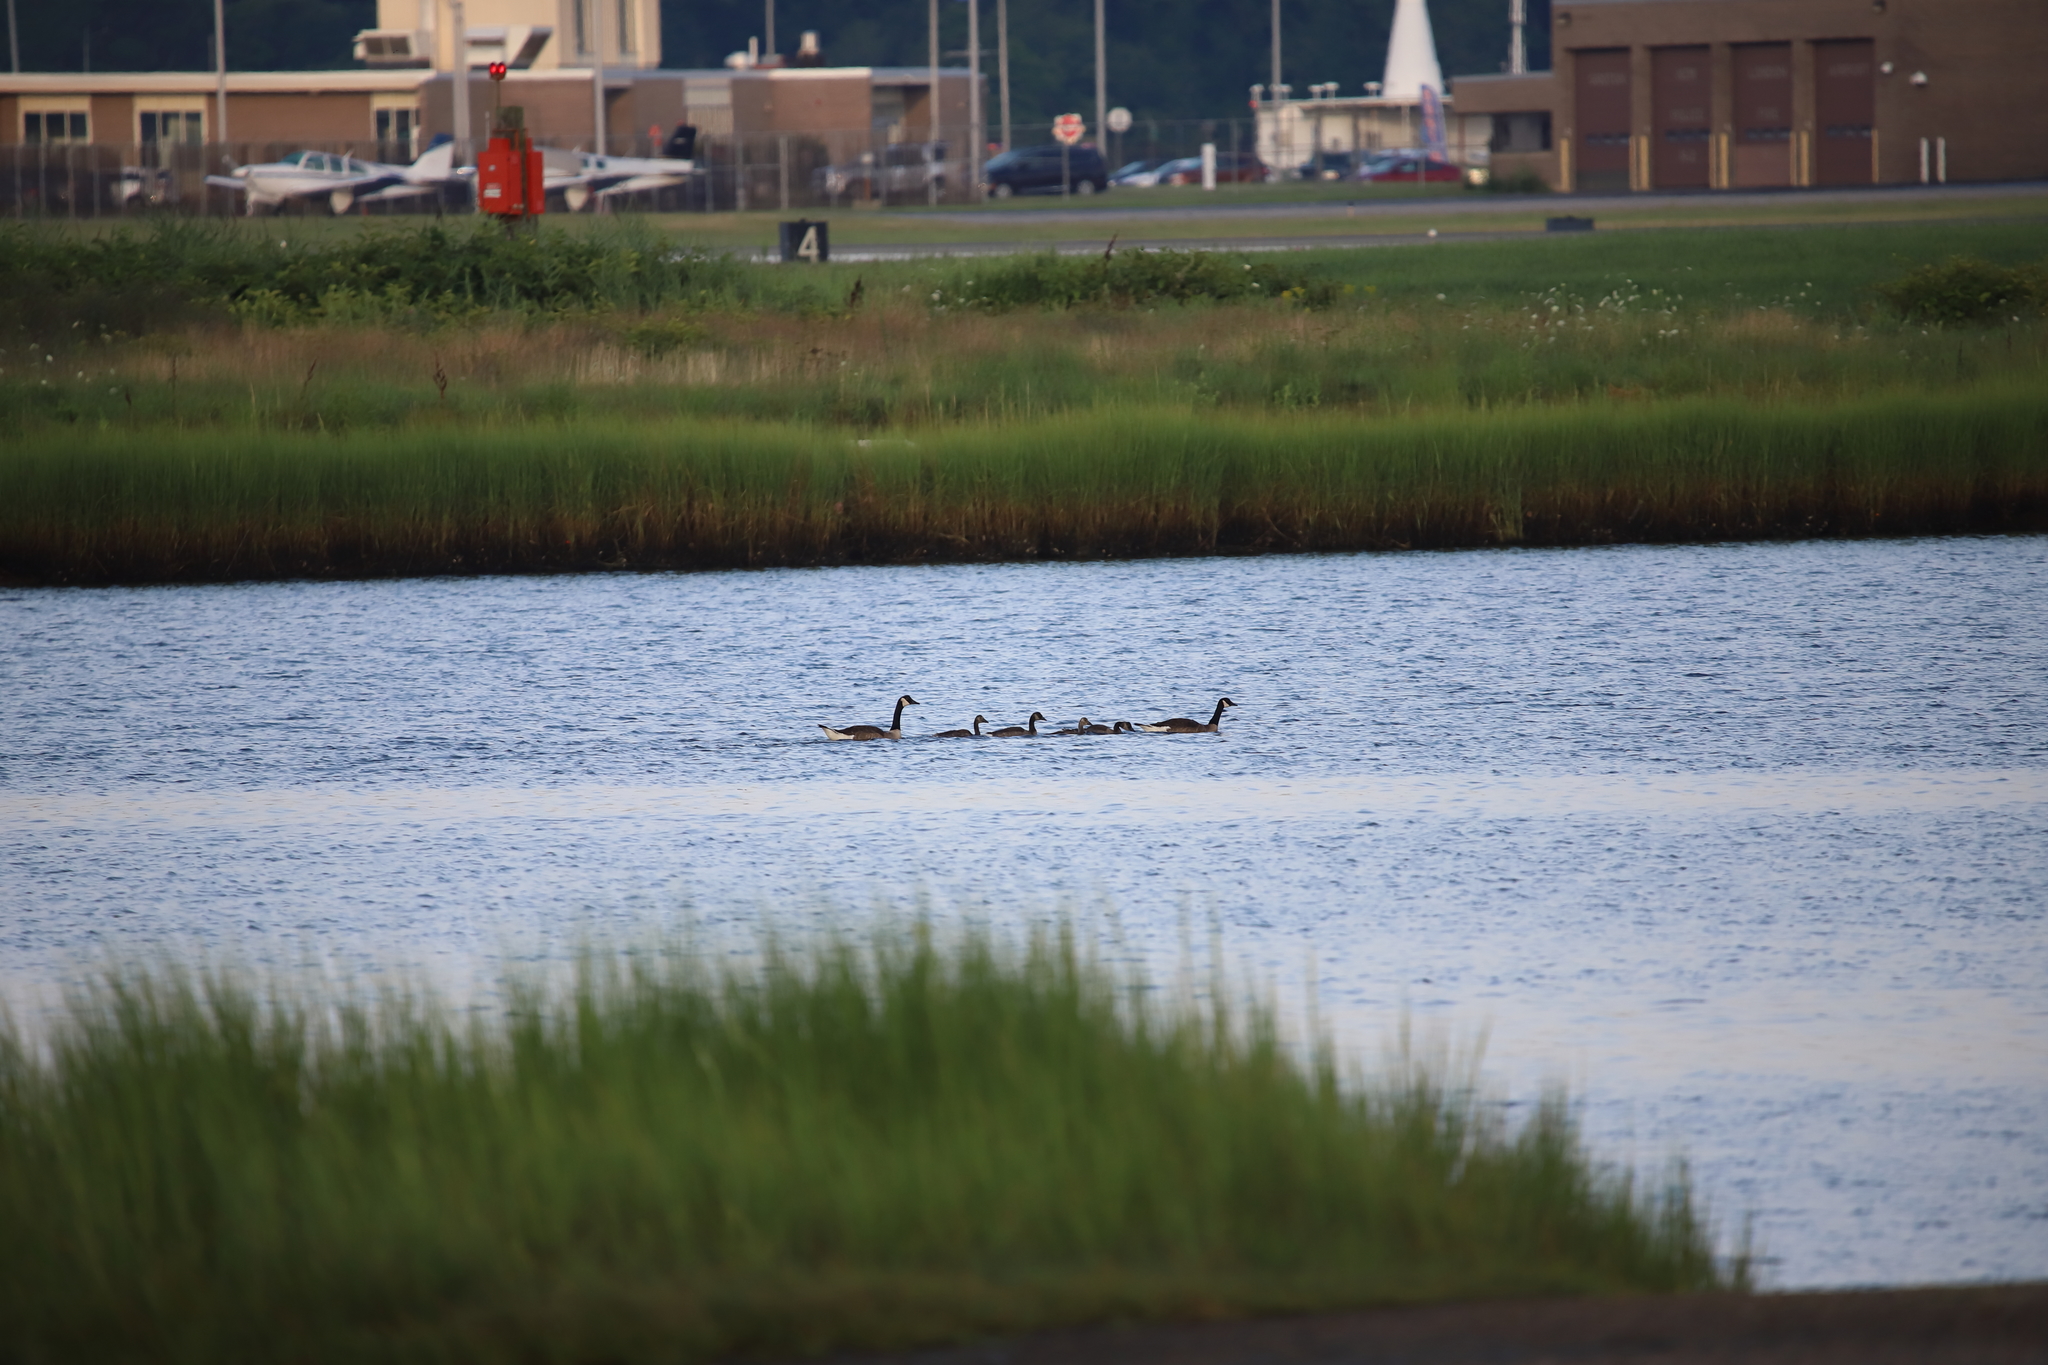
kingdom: Animalia
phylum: Chordata
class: Aves
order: Anseriformes
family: Anatidae
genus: Branta
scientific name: Branta canadensis
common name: Canada goose
